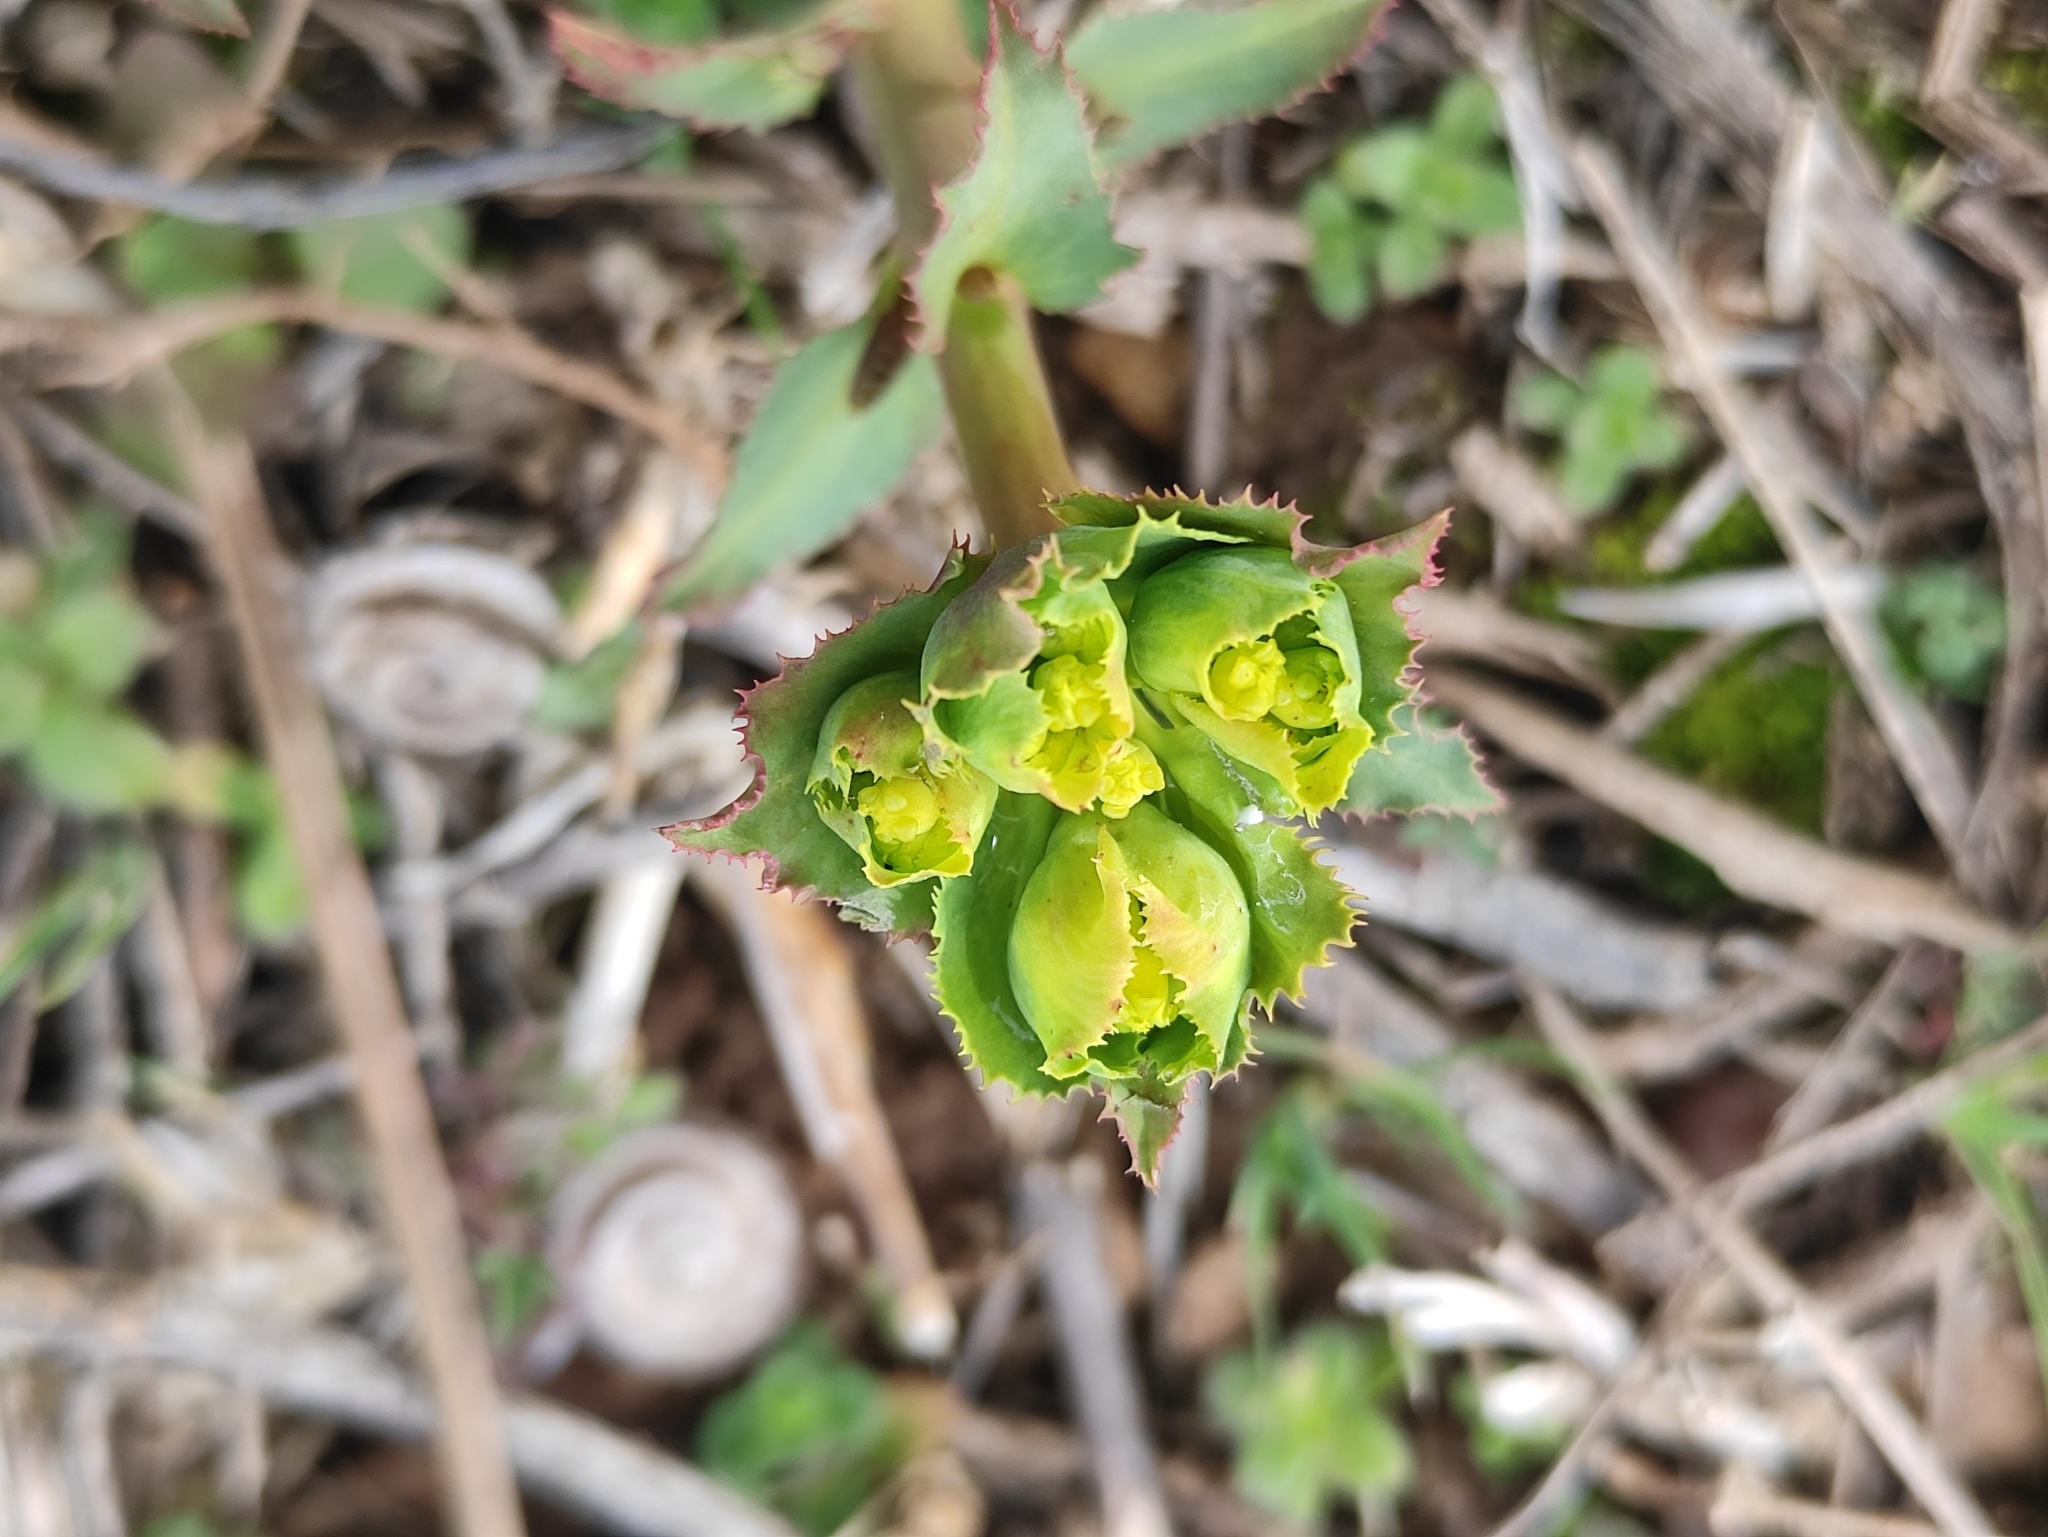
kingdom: Plantae
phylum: Tracheophyta
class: Magnoliopsida
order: Malpighiales
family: Euphorbiaceae
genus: Euphorbia
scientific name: Euphorbia serrata
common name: Serrate spurge
